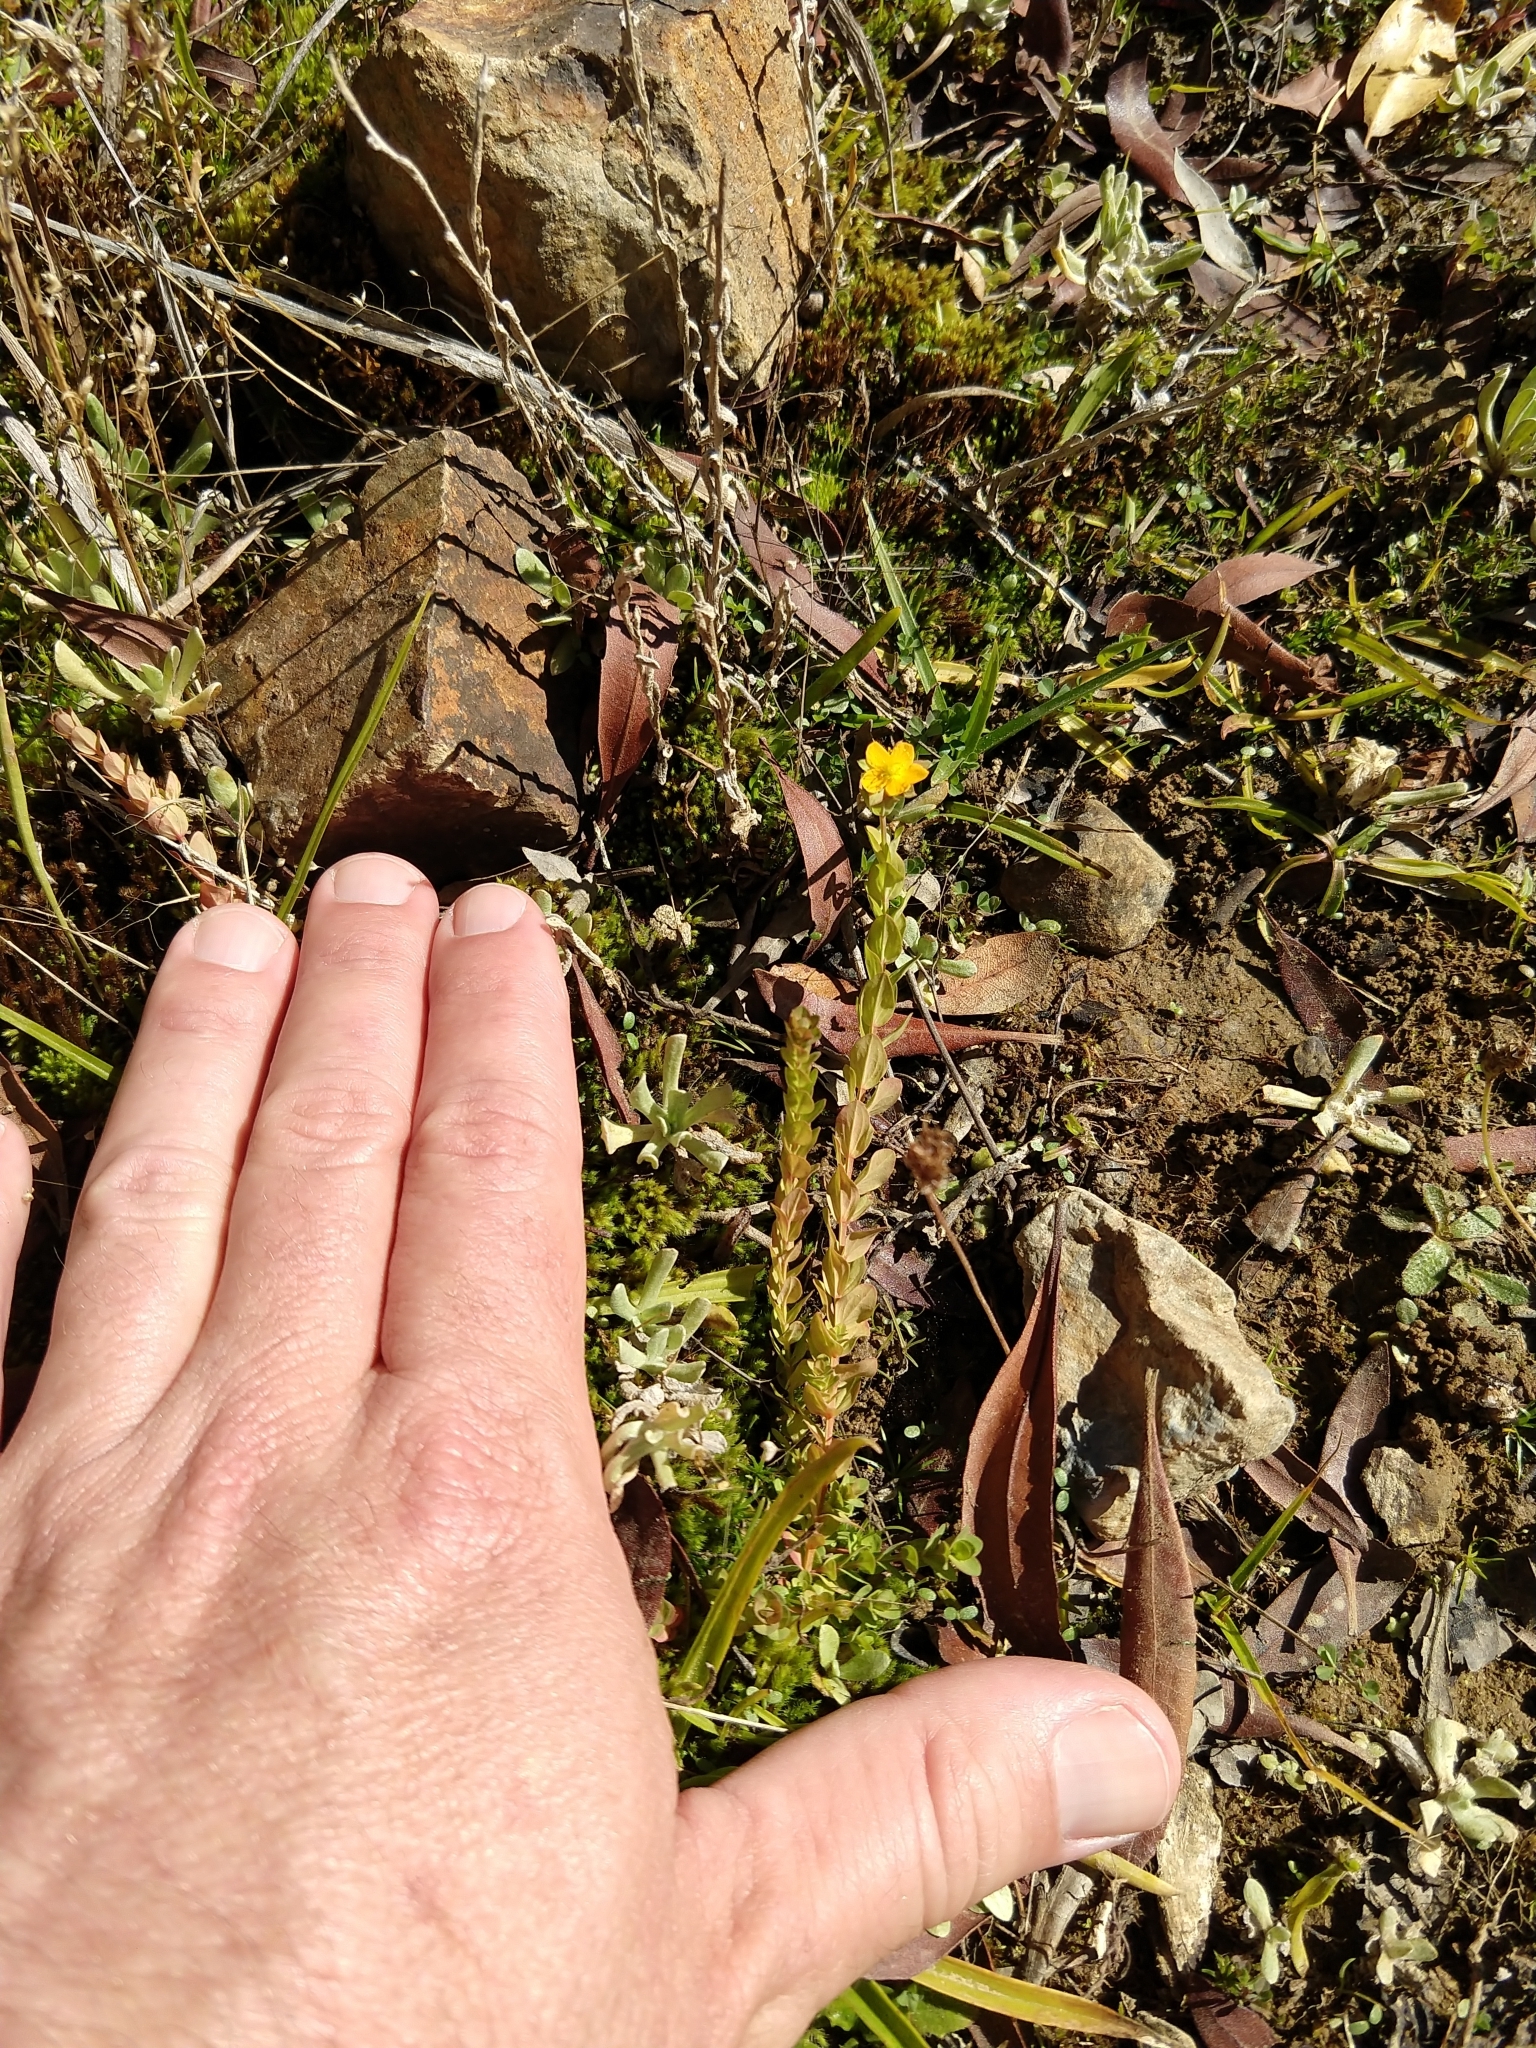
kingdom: Plantae
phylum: Tracheophyta
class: Magnoliopsida
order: Malpighiales
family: Hypericaceae
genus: Hypericum
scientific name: Hypericum anagalloides
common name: Bog st. john's-wort
